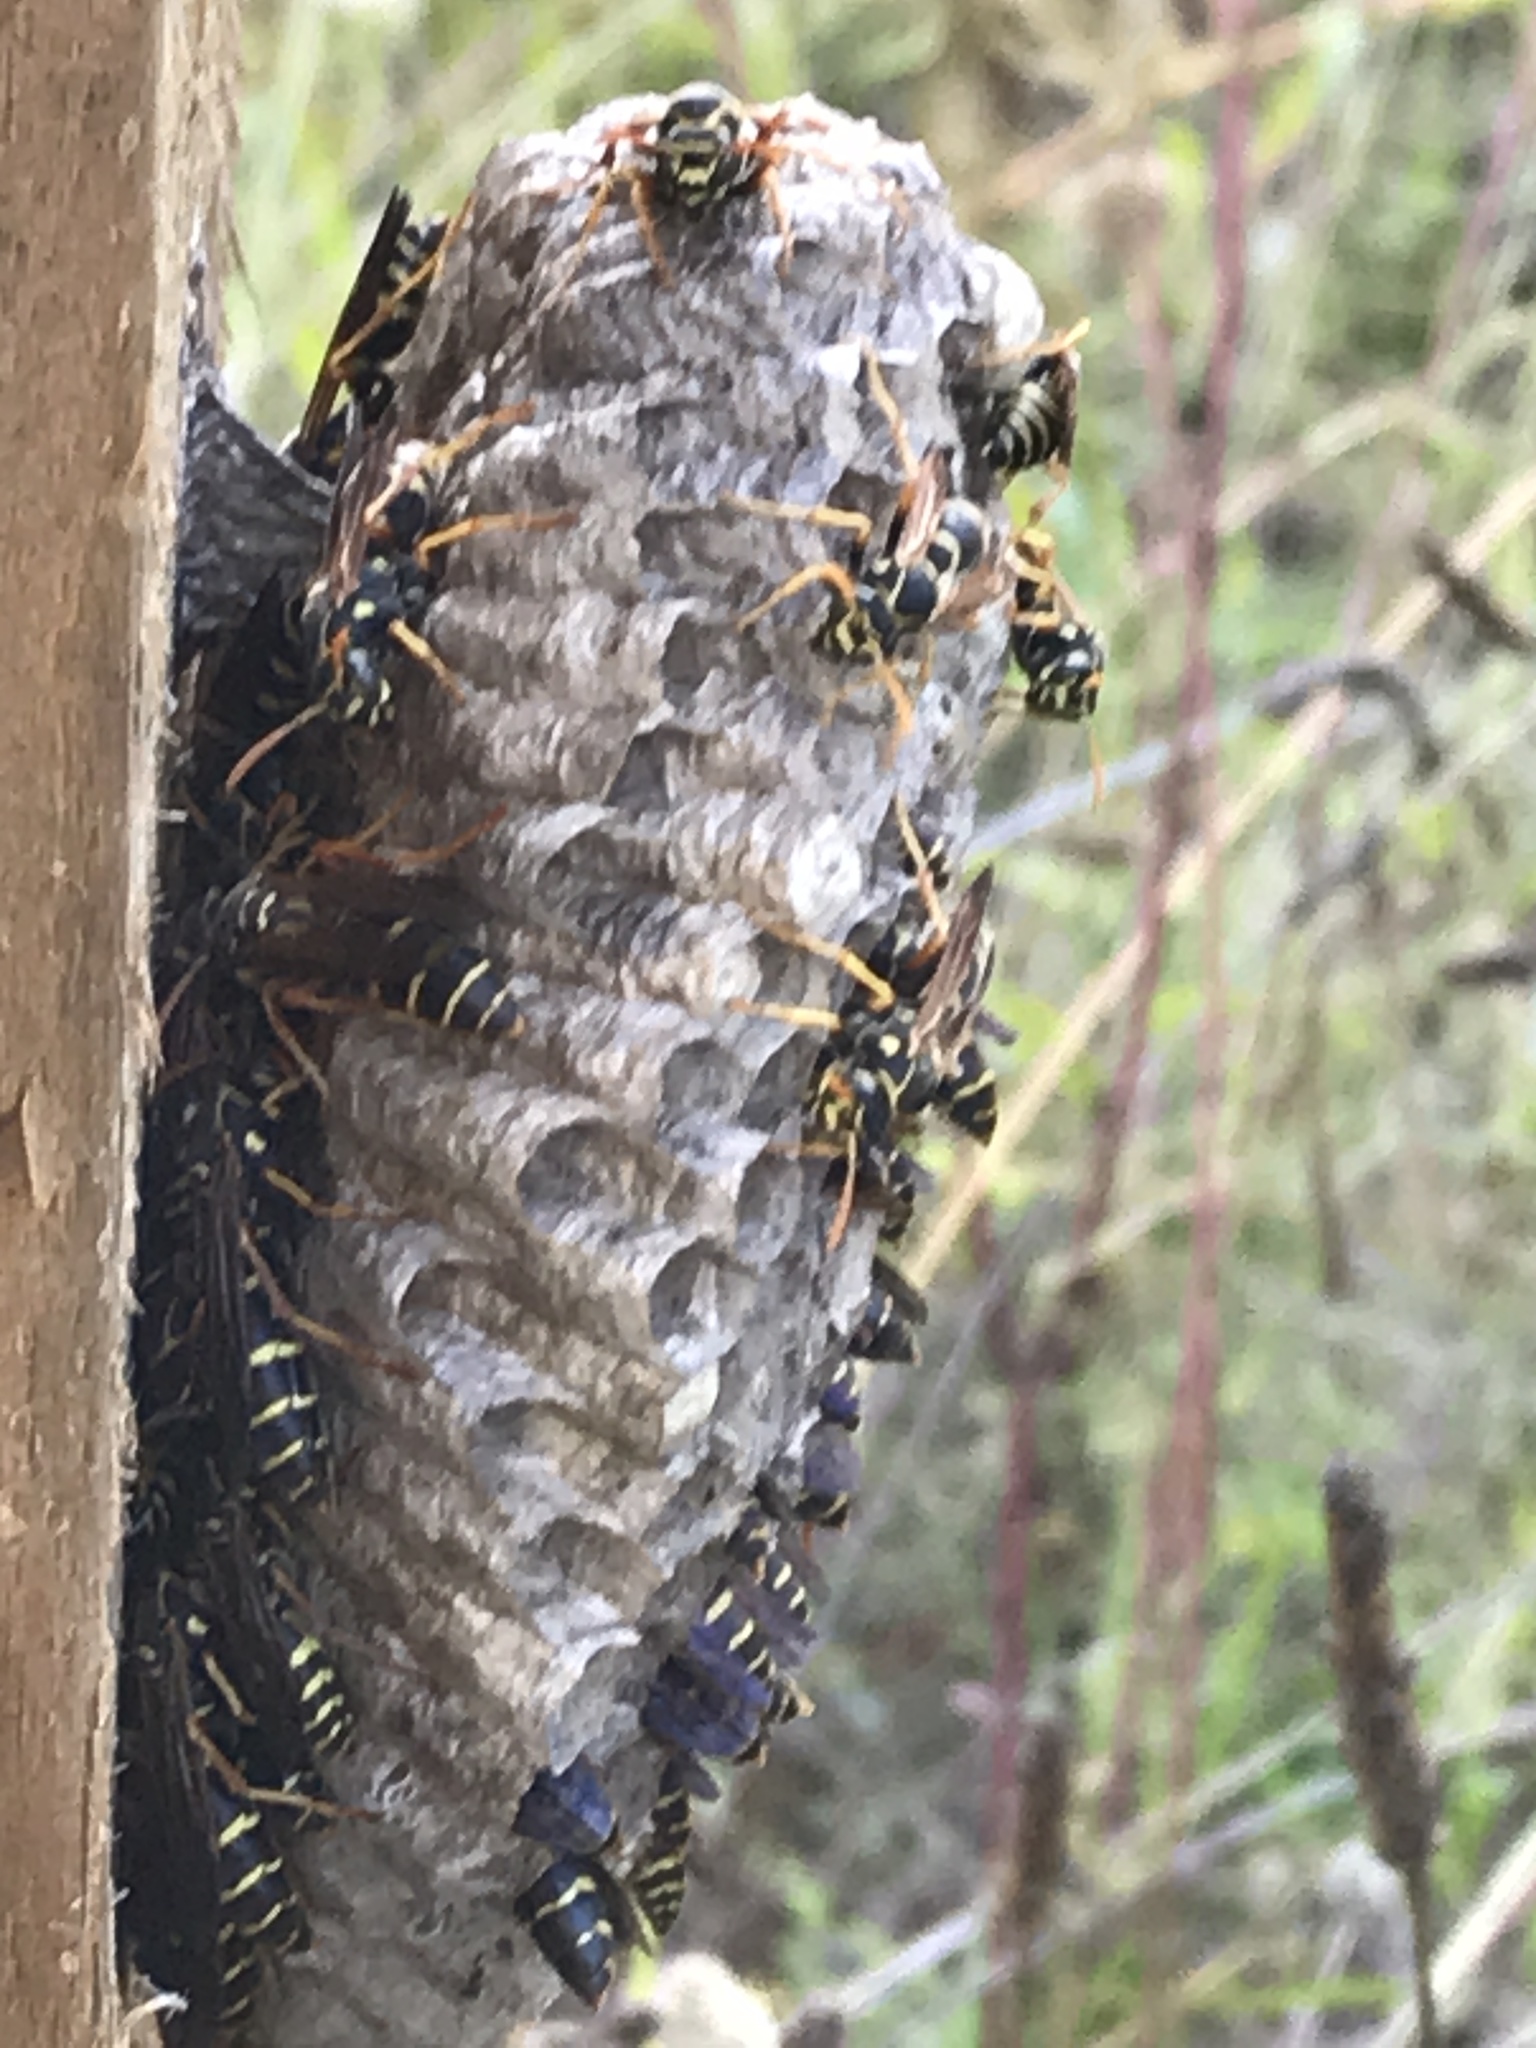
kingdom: Animalia
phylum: Arthropoda
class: Insecta
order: Hymenoptera
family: Eumenidae
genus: Polistes
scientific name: Polistes chinensis
